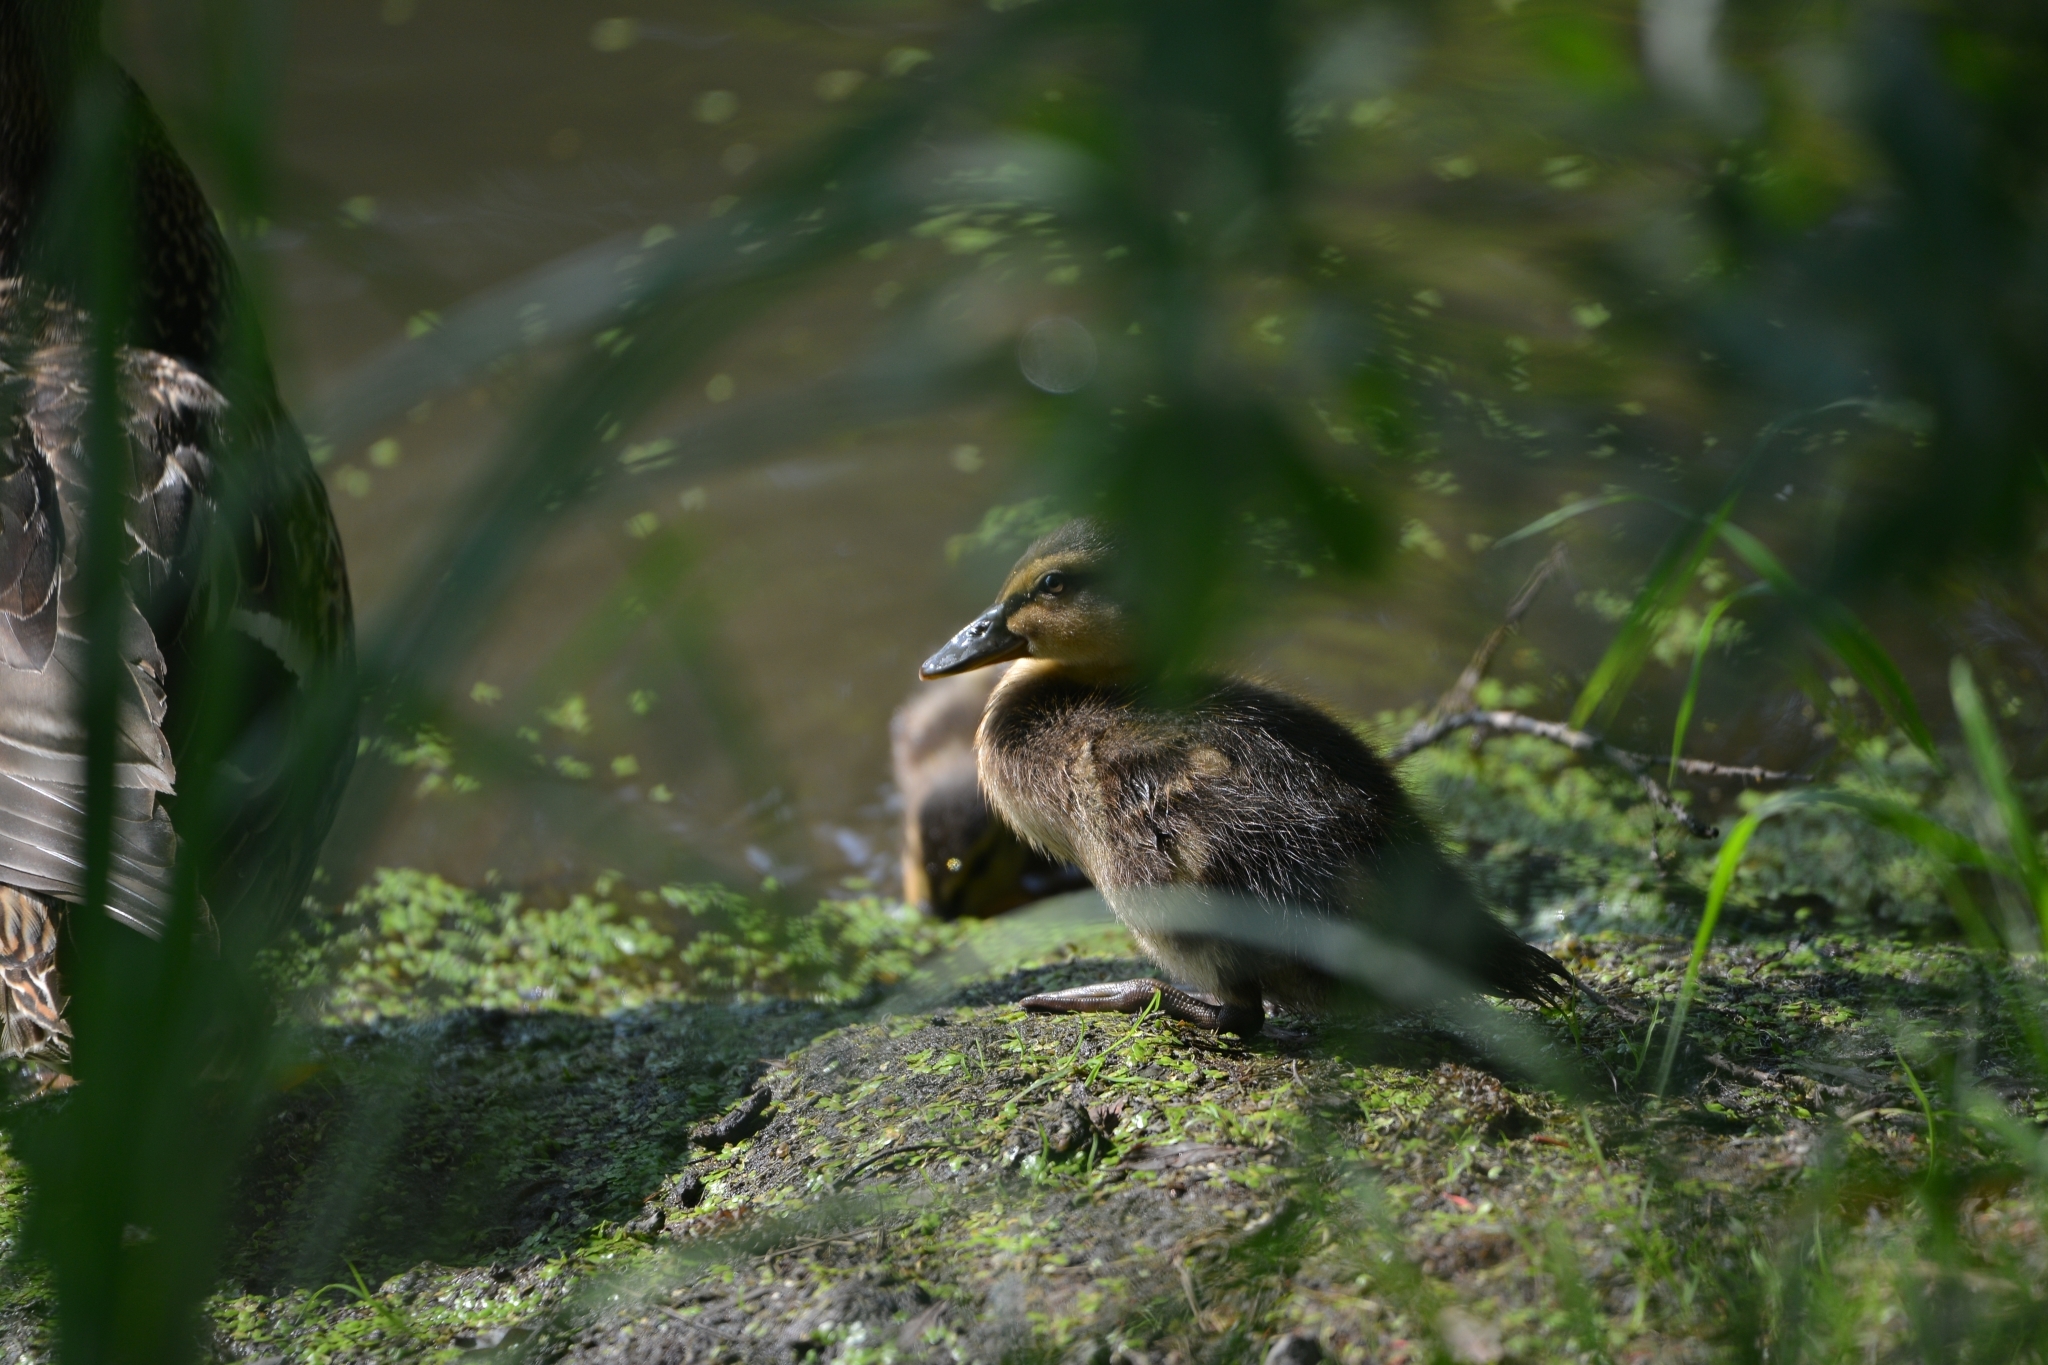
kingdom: Animalia
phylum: Chordata
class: Aves
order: Anseriformes
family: Anatidae
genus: Anas
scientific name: Anas platyrhynchos
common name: Mallard
